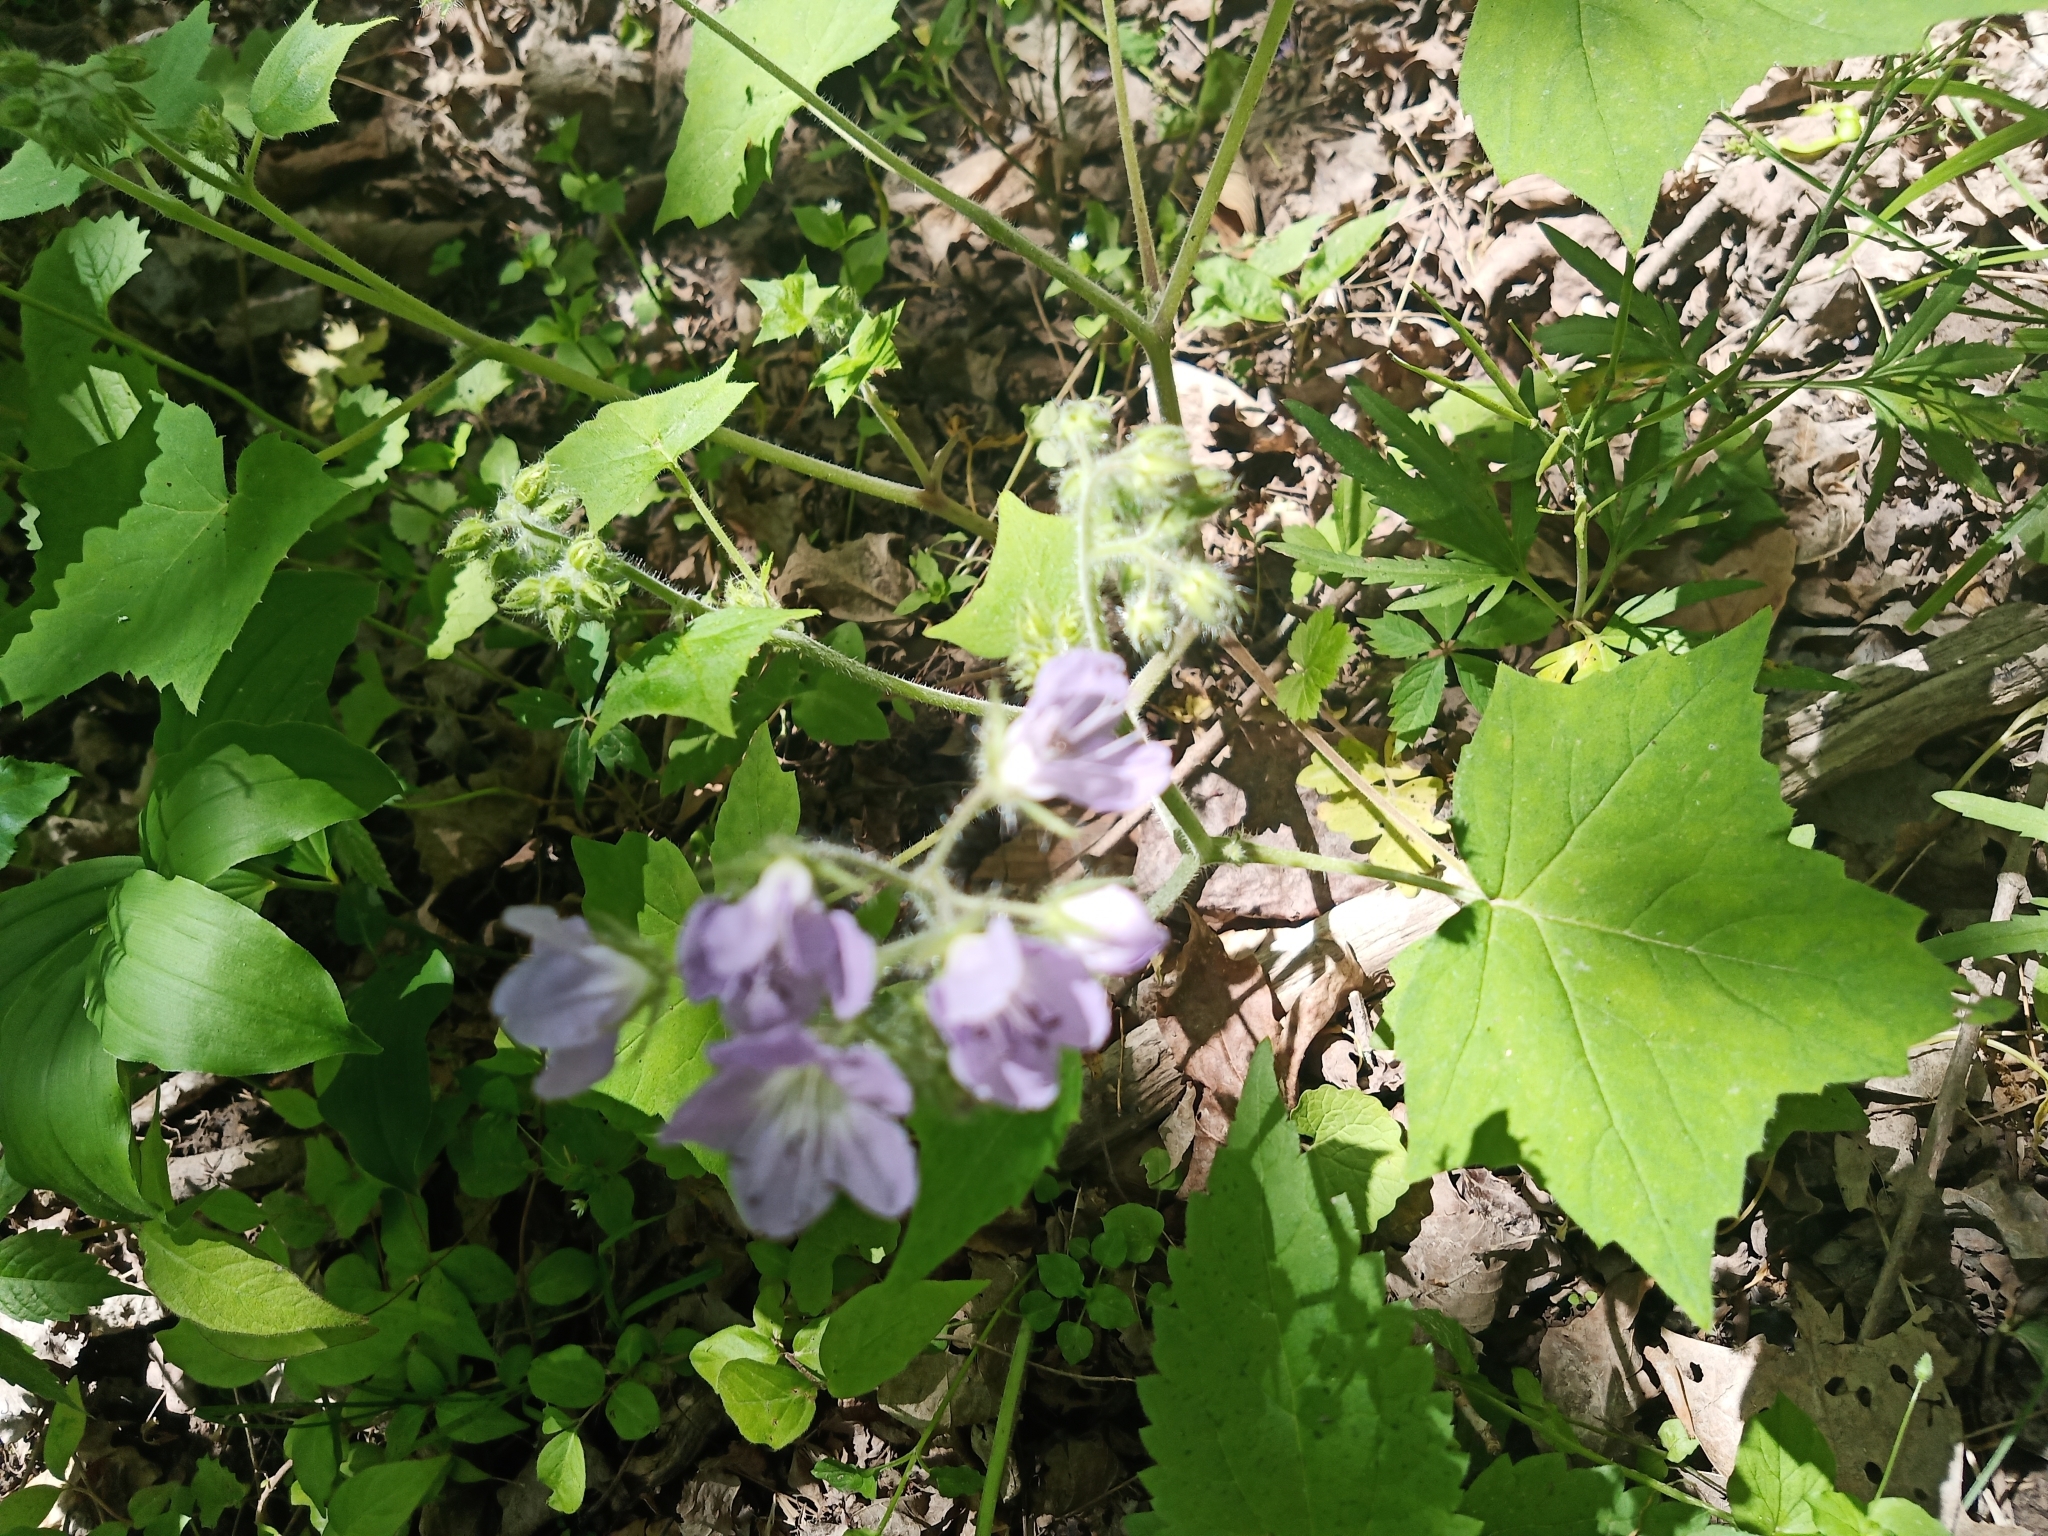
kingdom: Plantae
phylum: Tracheophyta
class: Magnoliopsida
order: Boraginales
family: Hydrophyllaceae
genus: Hydrophyllum
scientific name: Hydrophyllum appendiculatum
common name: Appendaged waterleaf
